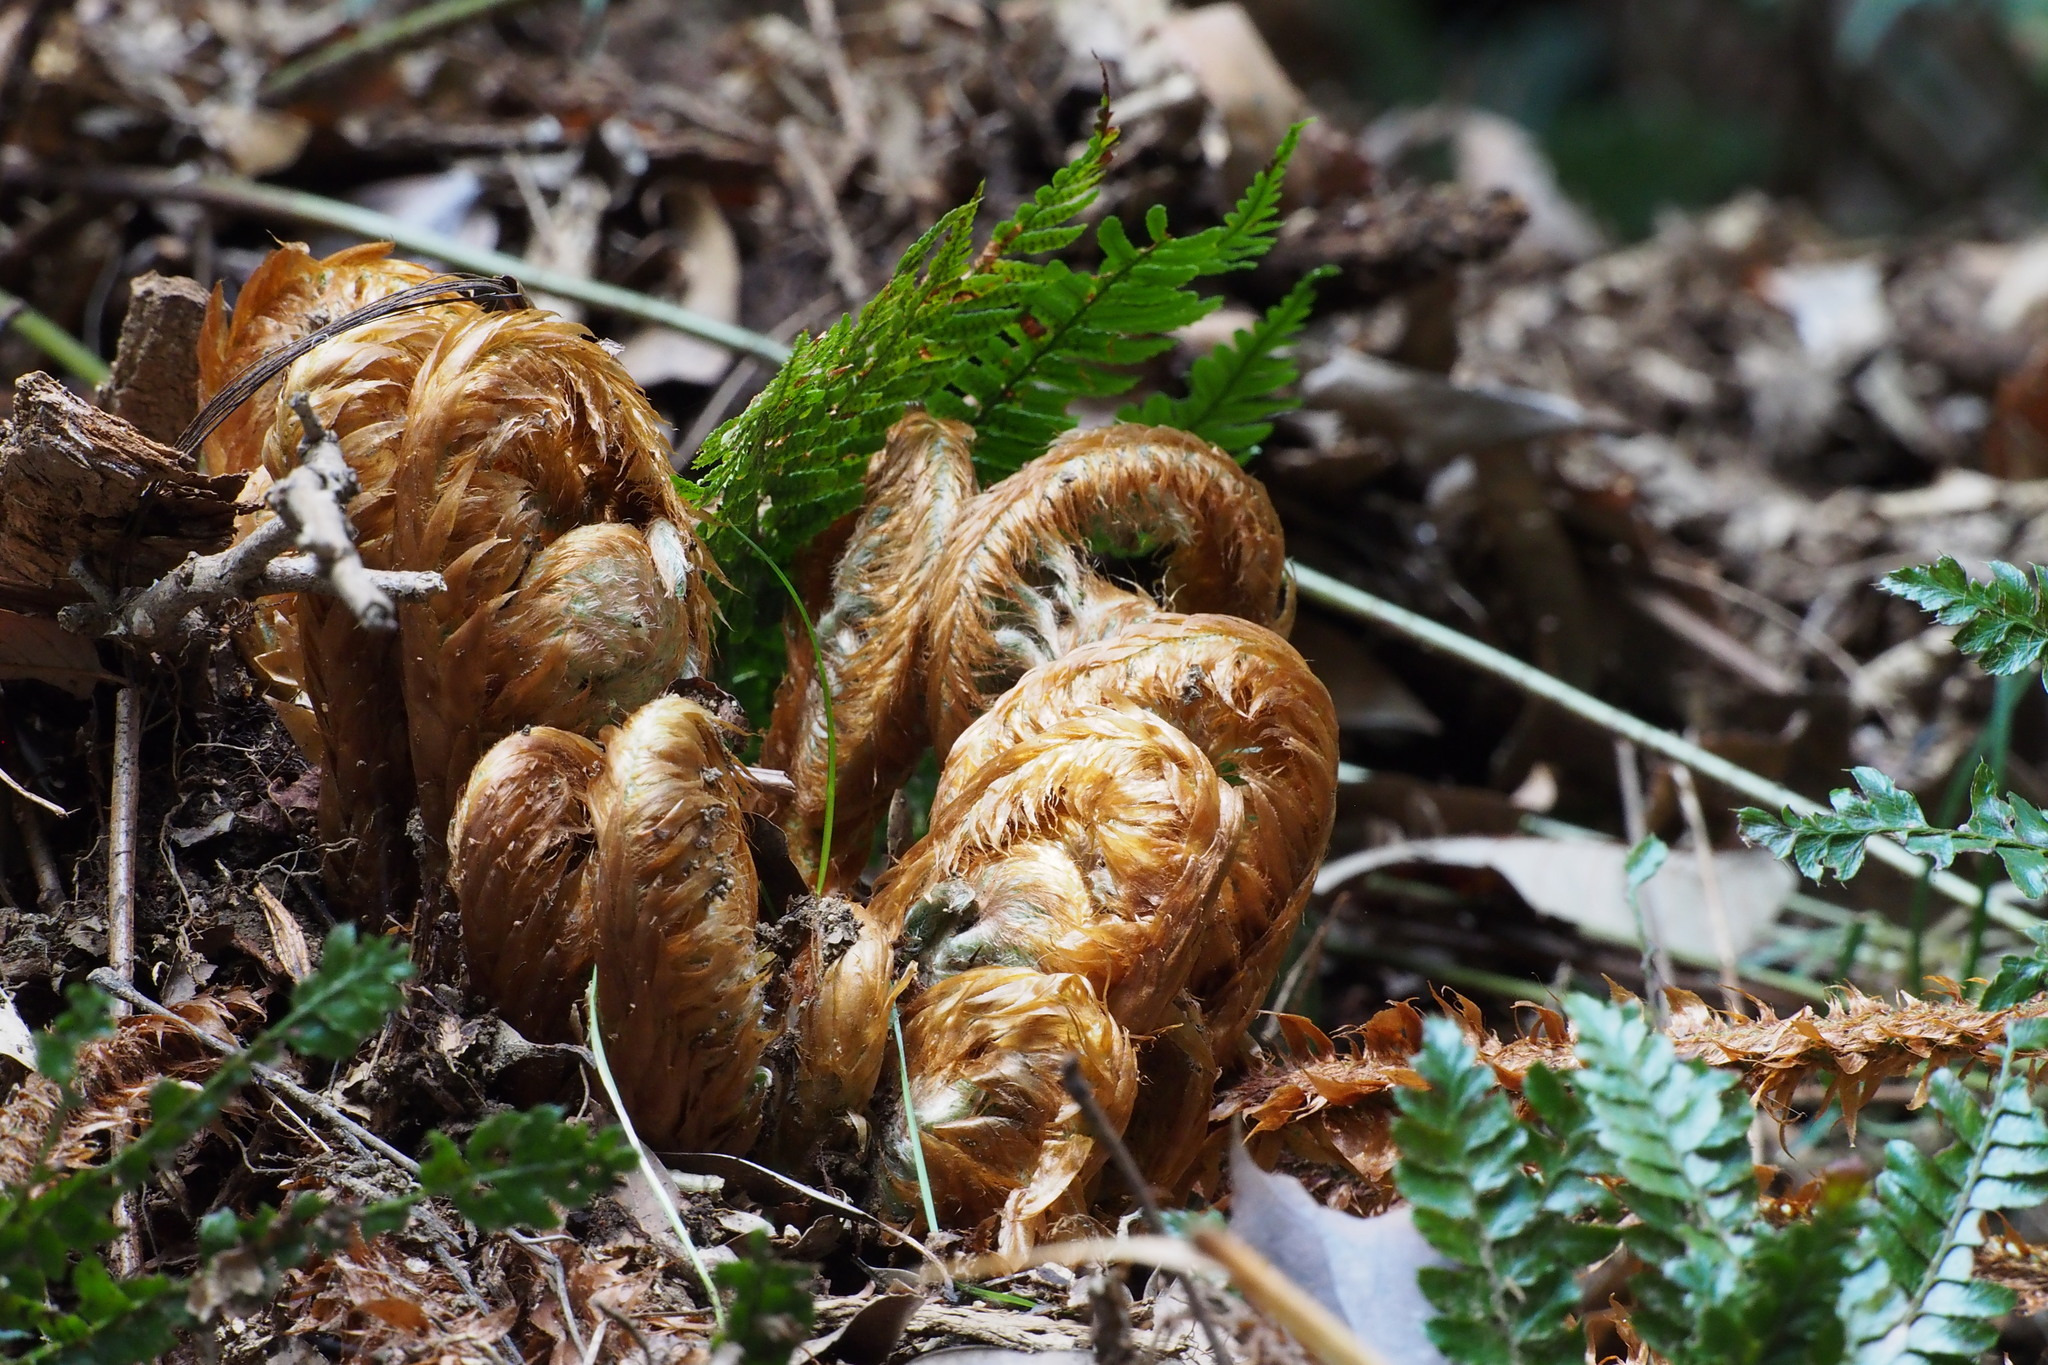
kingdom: Plantae
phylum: Tracheophyta
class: Polypodiopsida
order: Polypodiales
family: Dryopteridaceae
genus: Polystichum
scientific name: Polystichum luctuosum
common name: Korean rockfern
